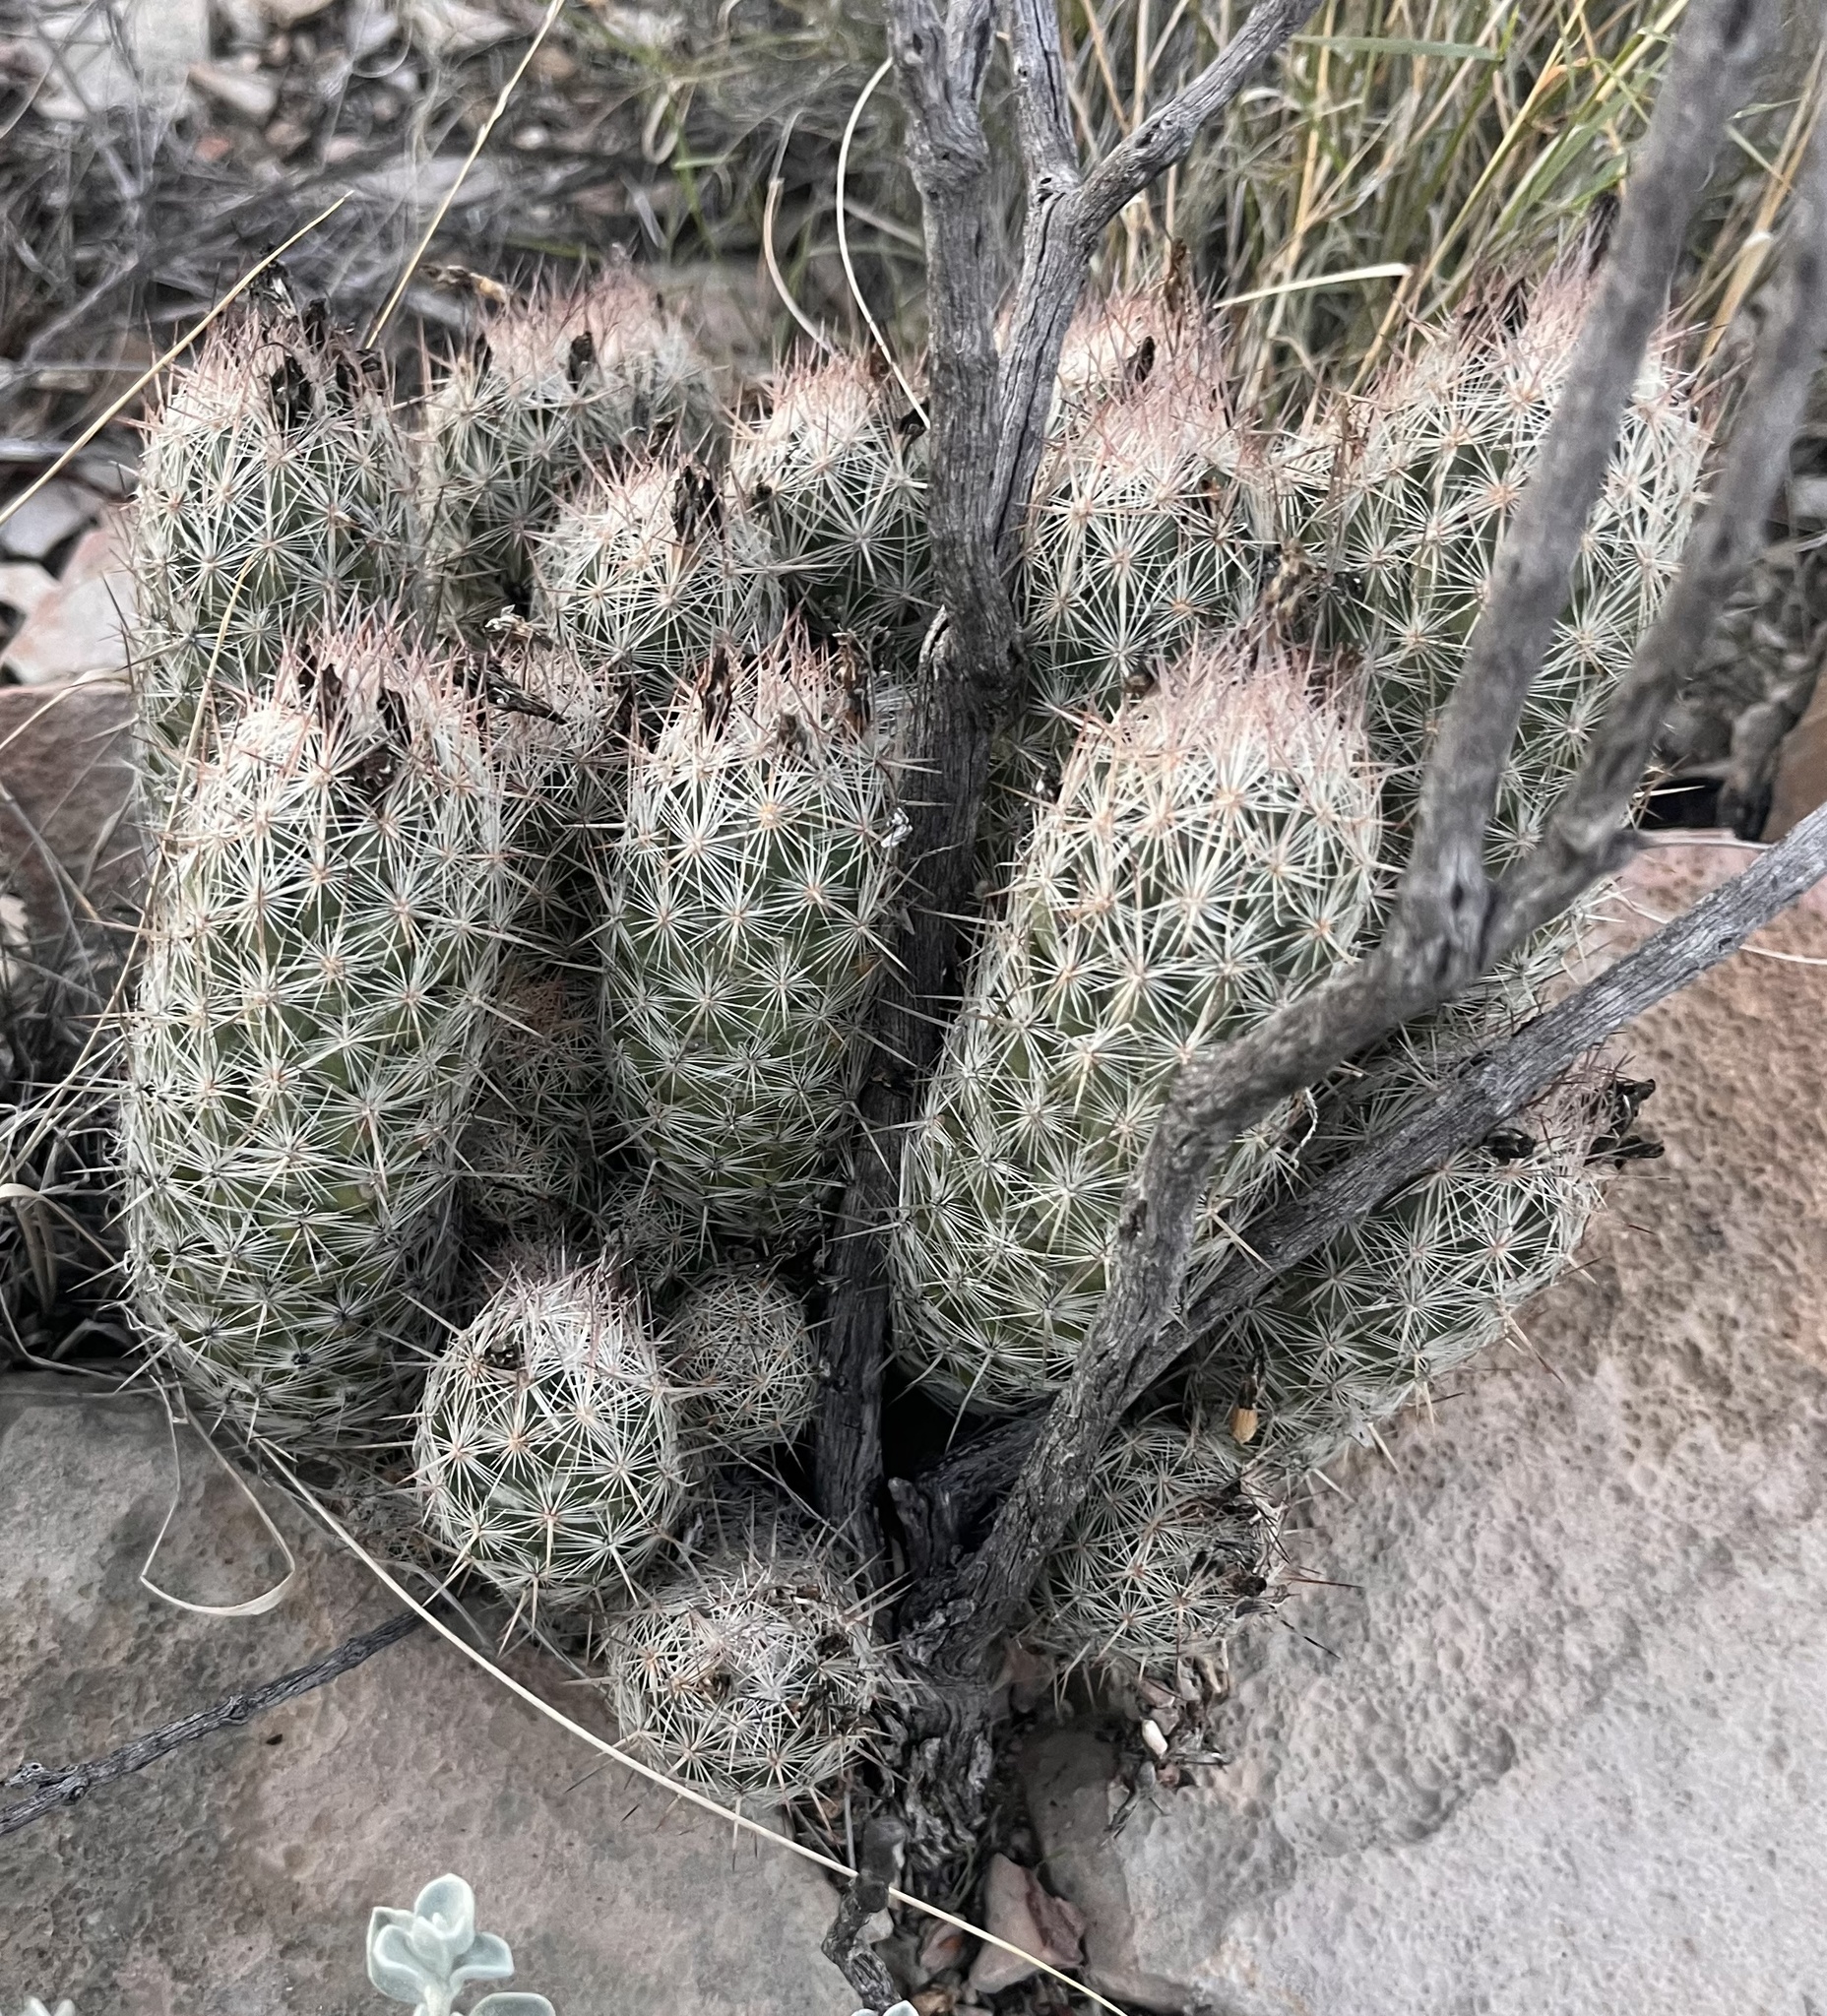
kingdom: Plantae
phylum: Tracheophyta
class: Magnoliopsida
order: Caryophyllales
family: Cactaceae
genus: Pelecyphora
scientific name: Pelecyphora tuberculosa
